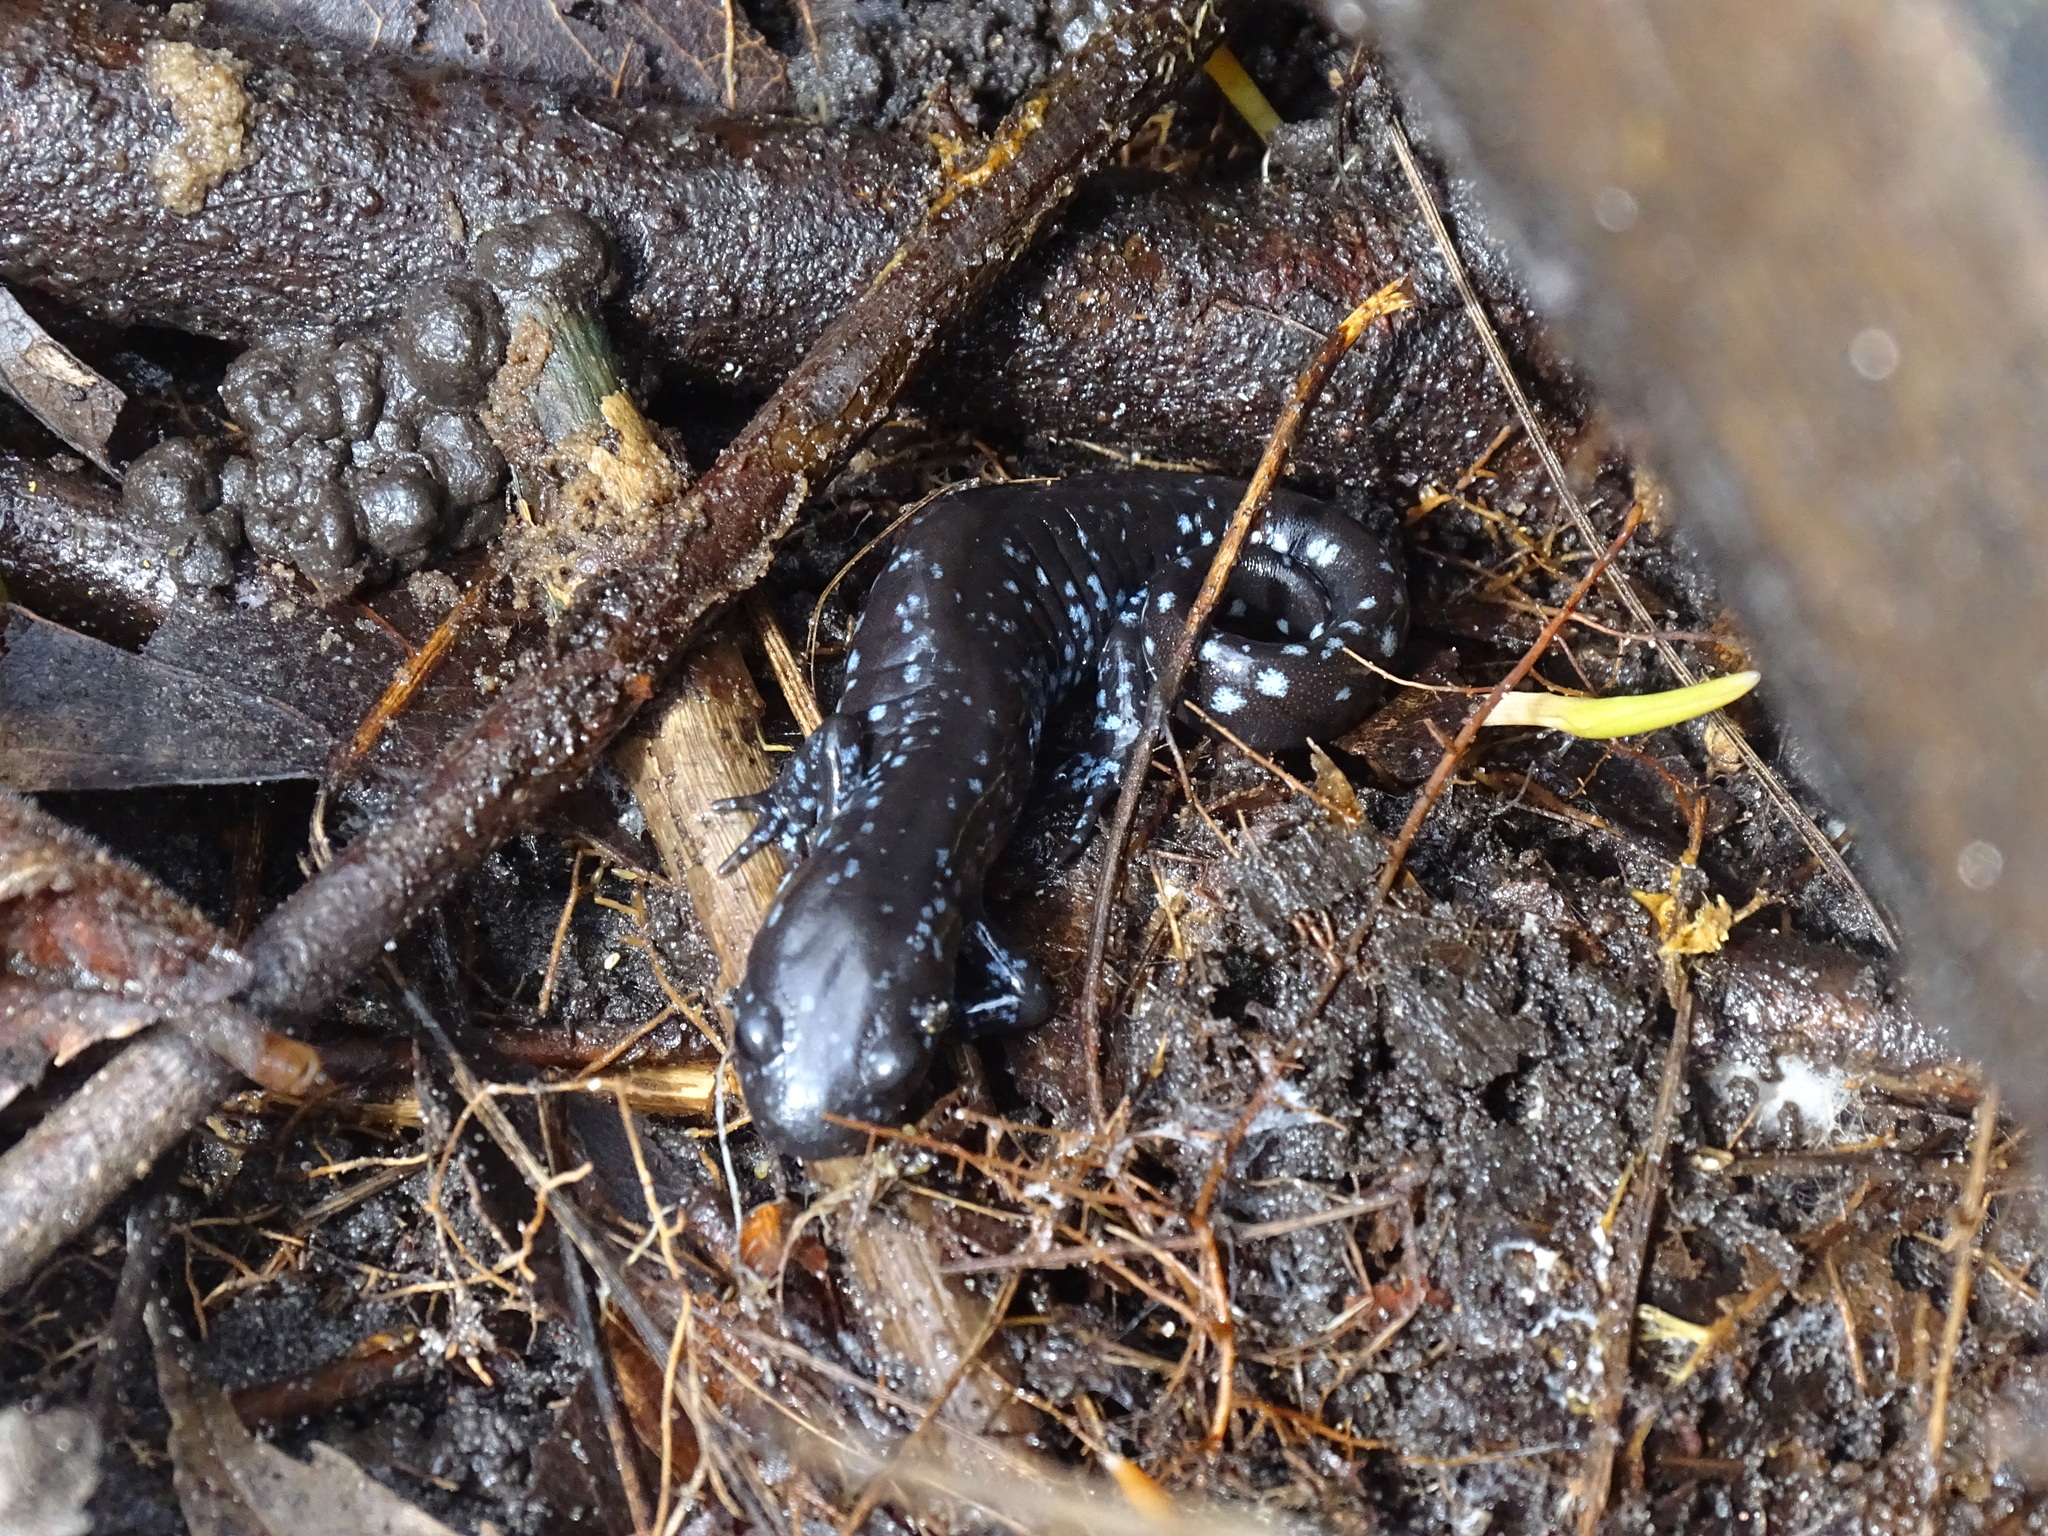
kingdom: Animalia
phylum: Chordata
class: Amphibia
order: Caudata
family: Ambystomatidae
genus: Ambystoma
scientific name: Ambystoma laterale
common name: Blue-spotted salamander
